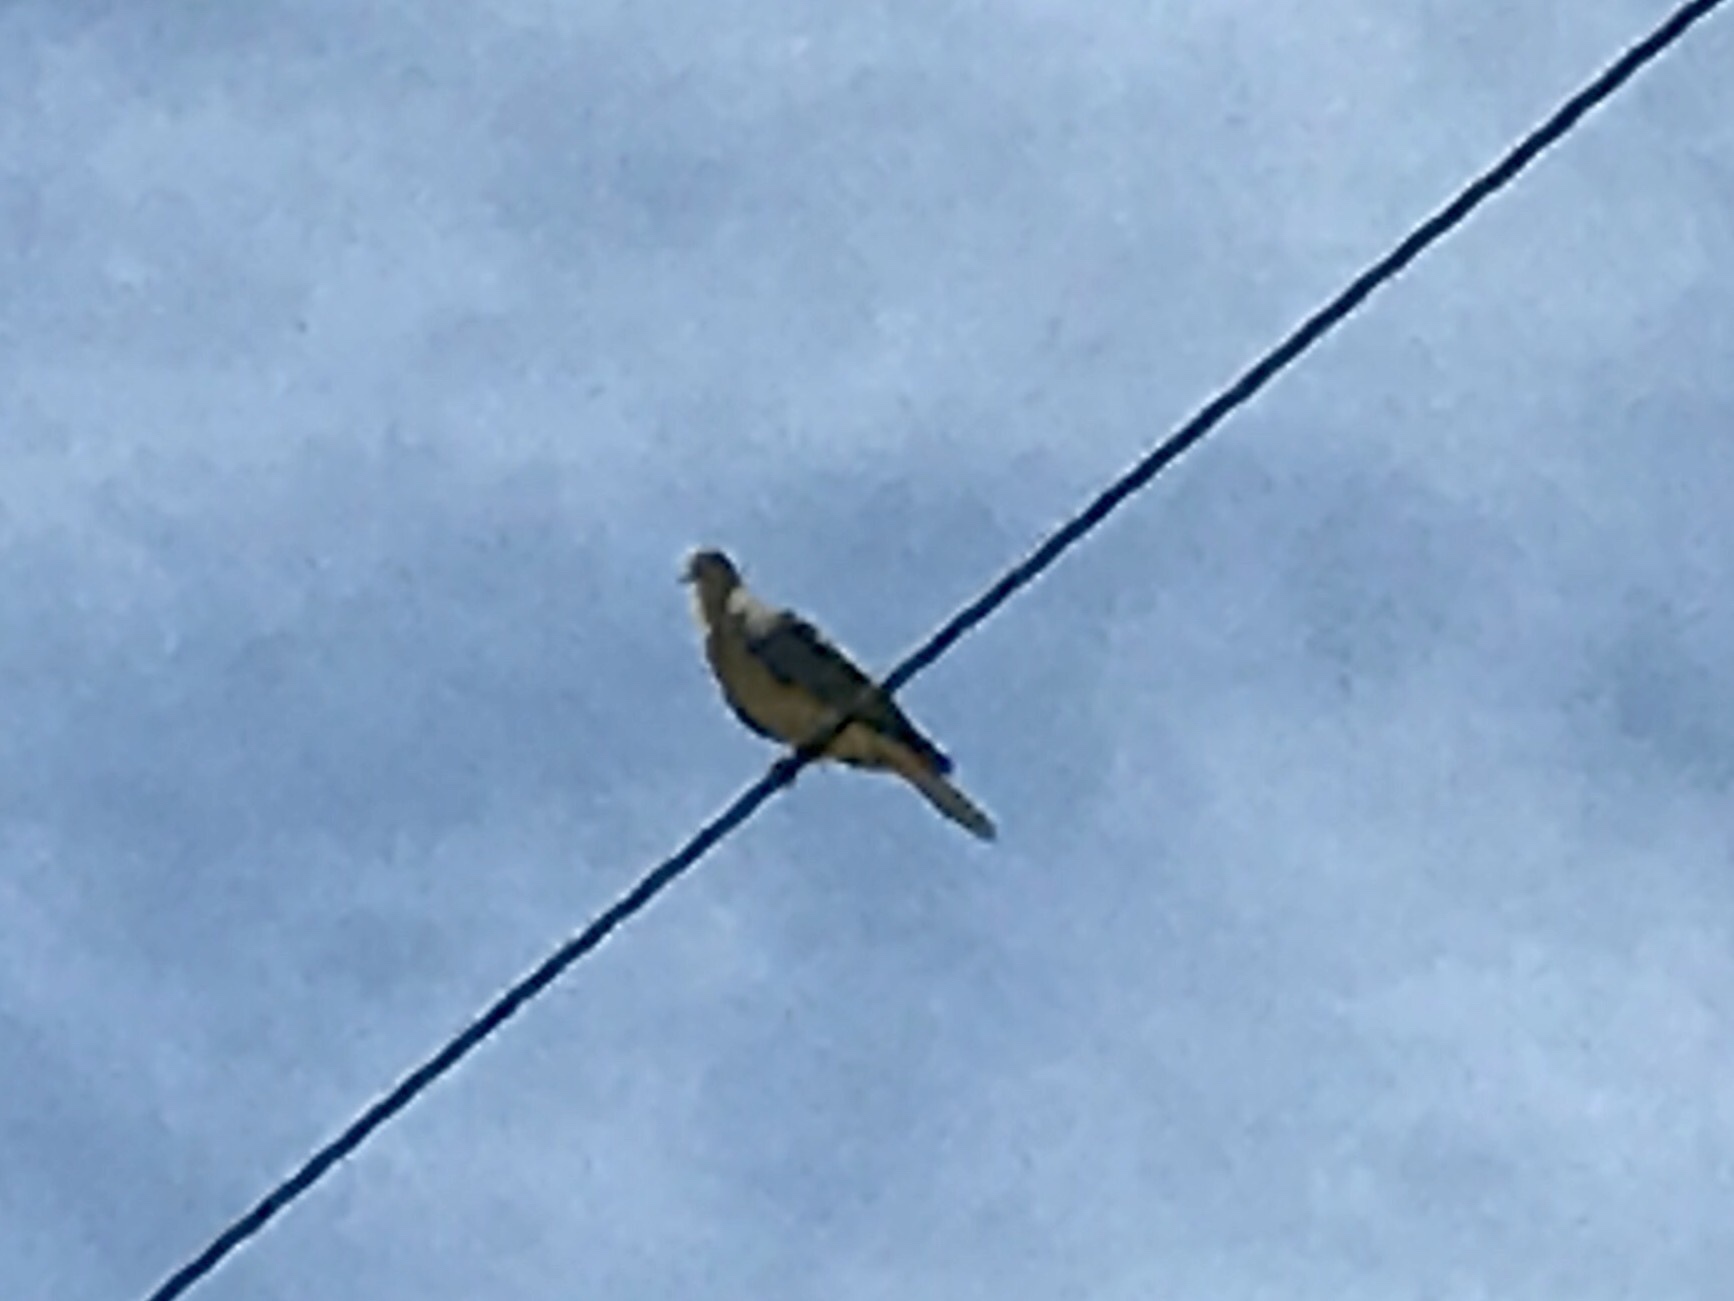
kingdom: Animalia
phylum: Chordata
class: Aves
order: Columbiformes
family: Columbidae
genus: Zenaida
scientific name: Zenaida macroura
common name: Mourning dove
